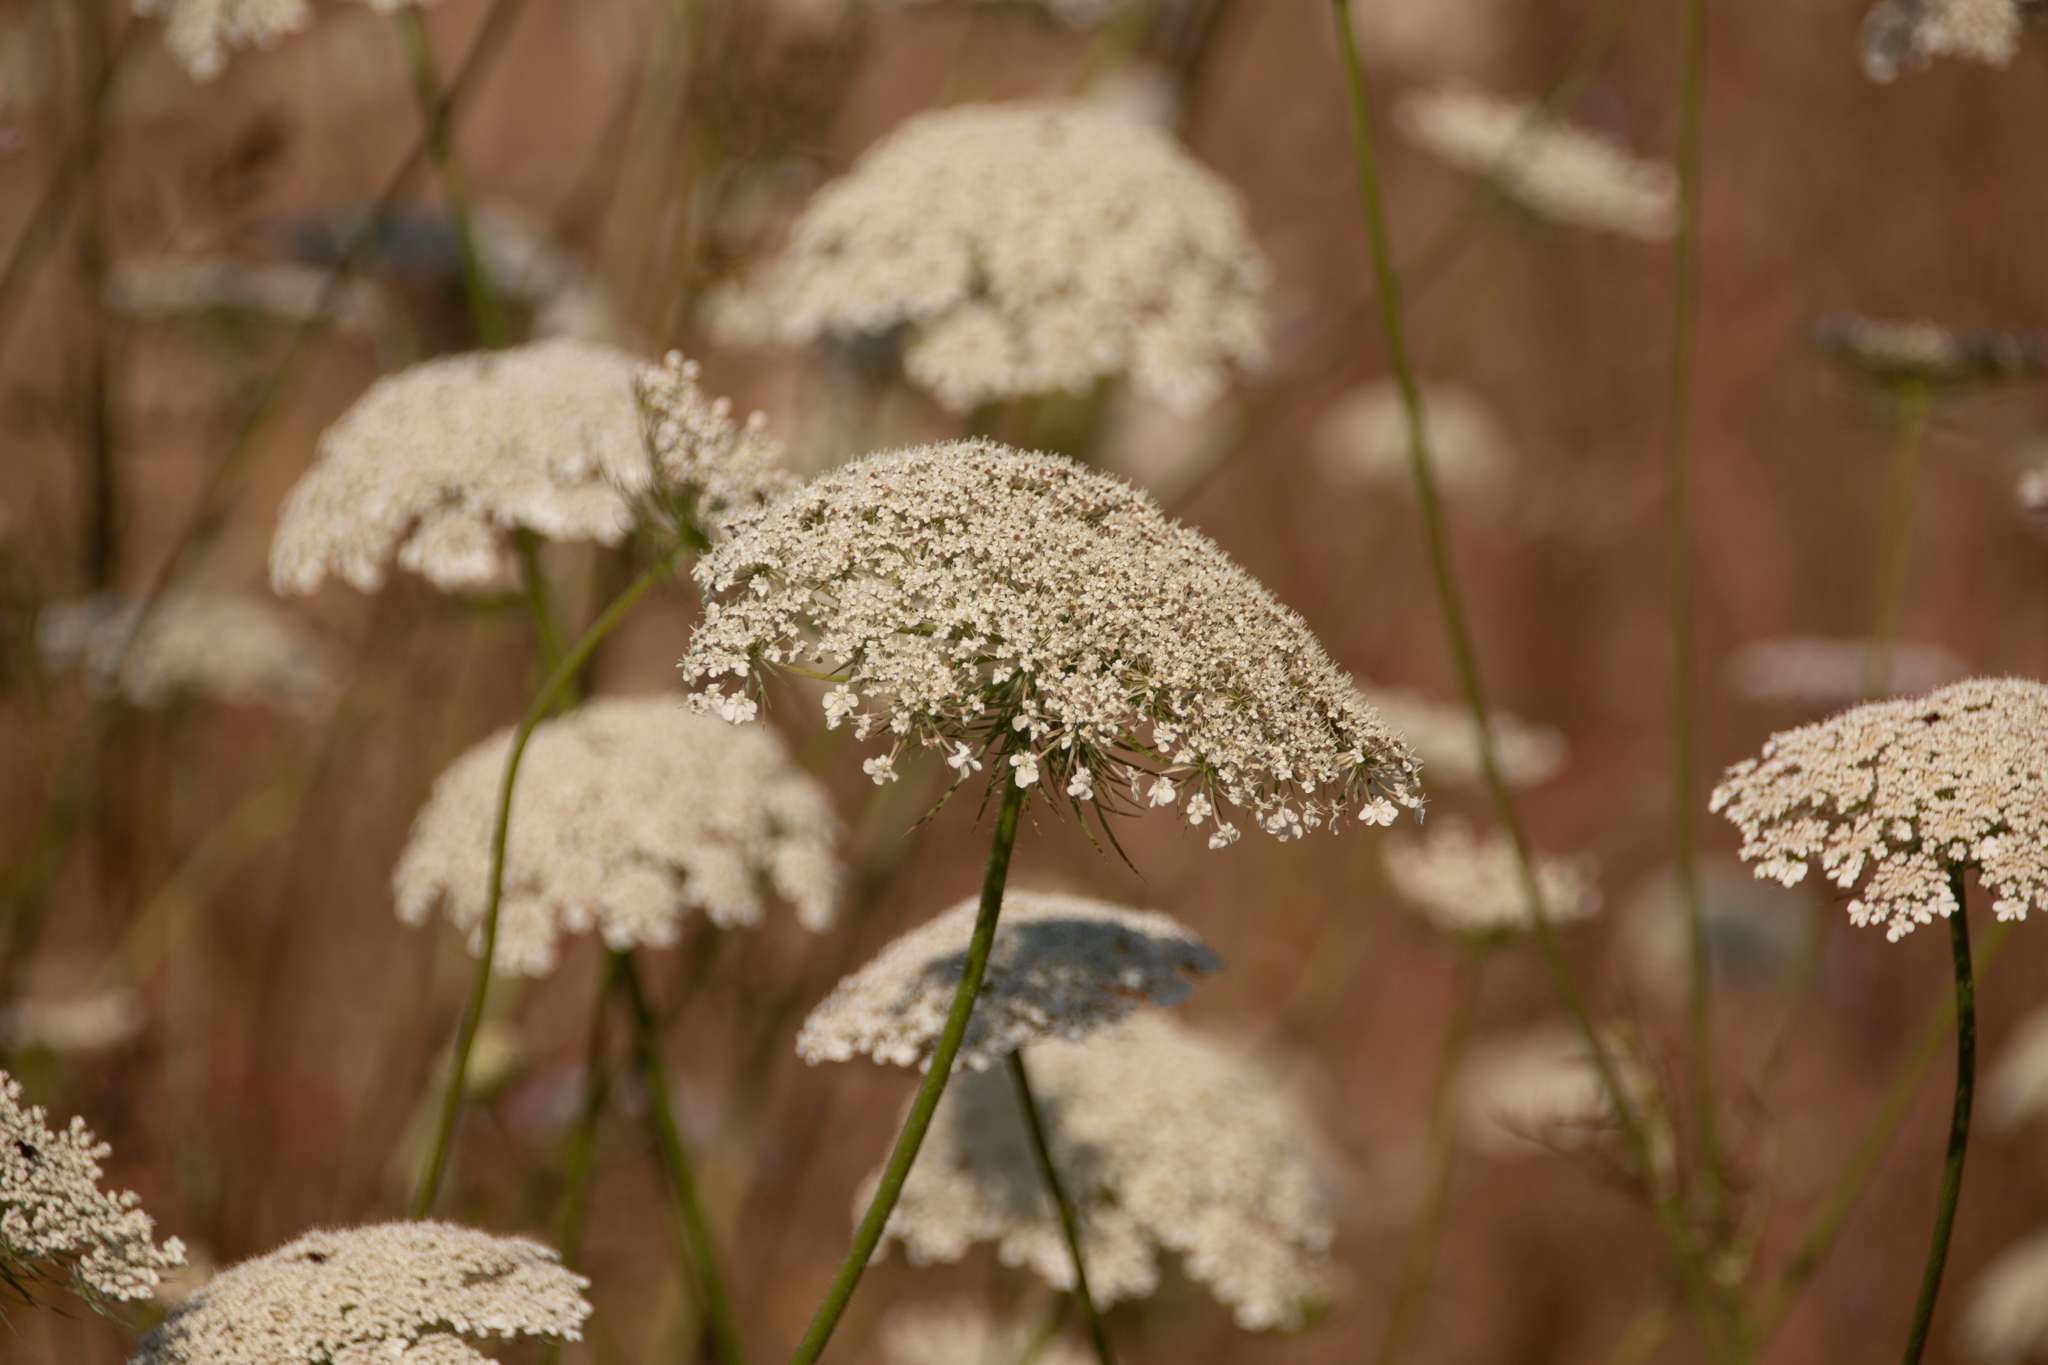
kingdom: Plantae
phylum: Tracheophyta
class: Magnoliopsida
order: Apiales
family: Apiaceae
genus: Daucus
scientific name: Daucus carota
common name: Wild carrot
